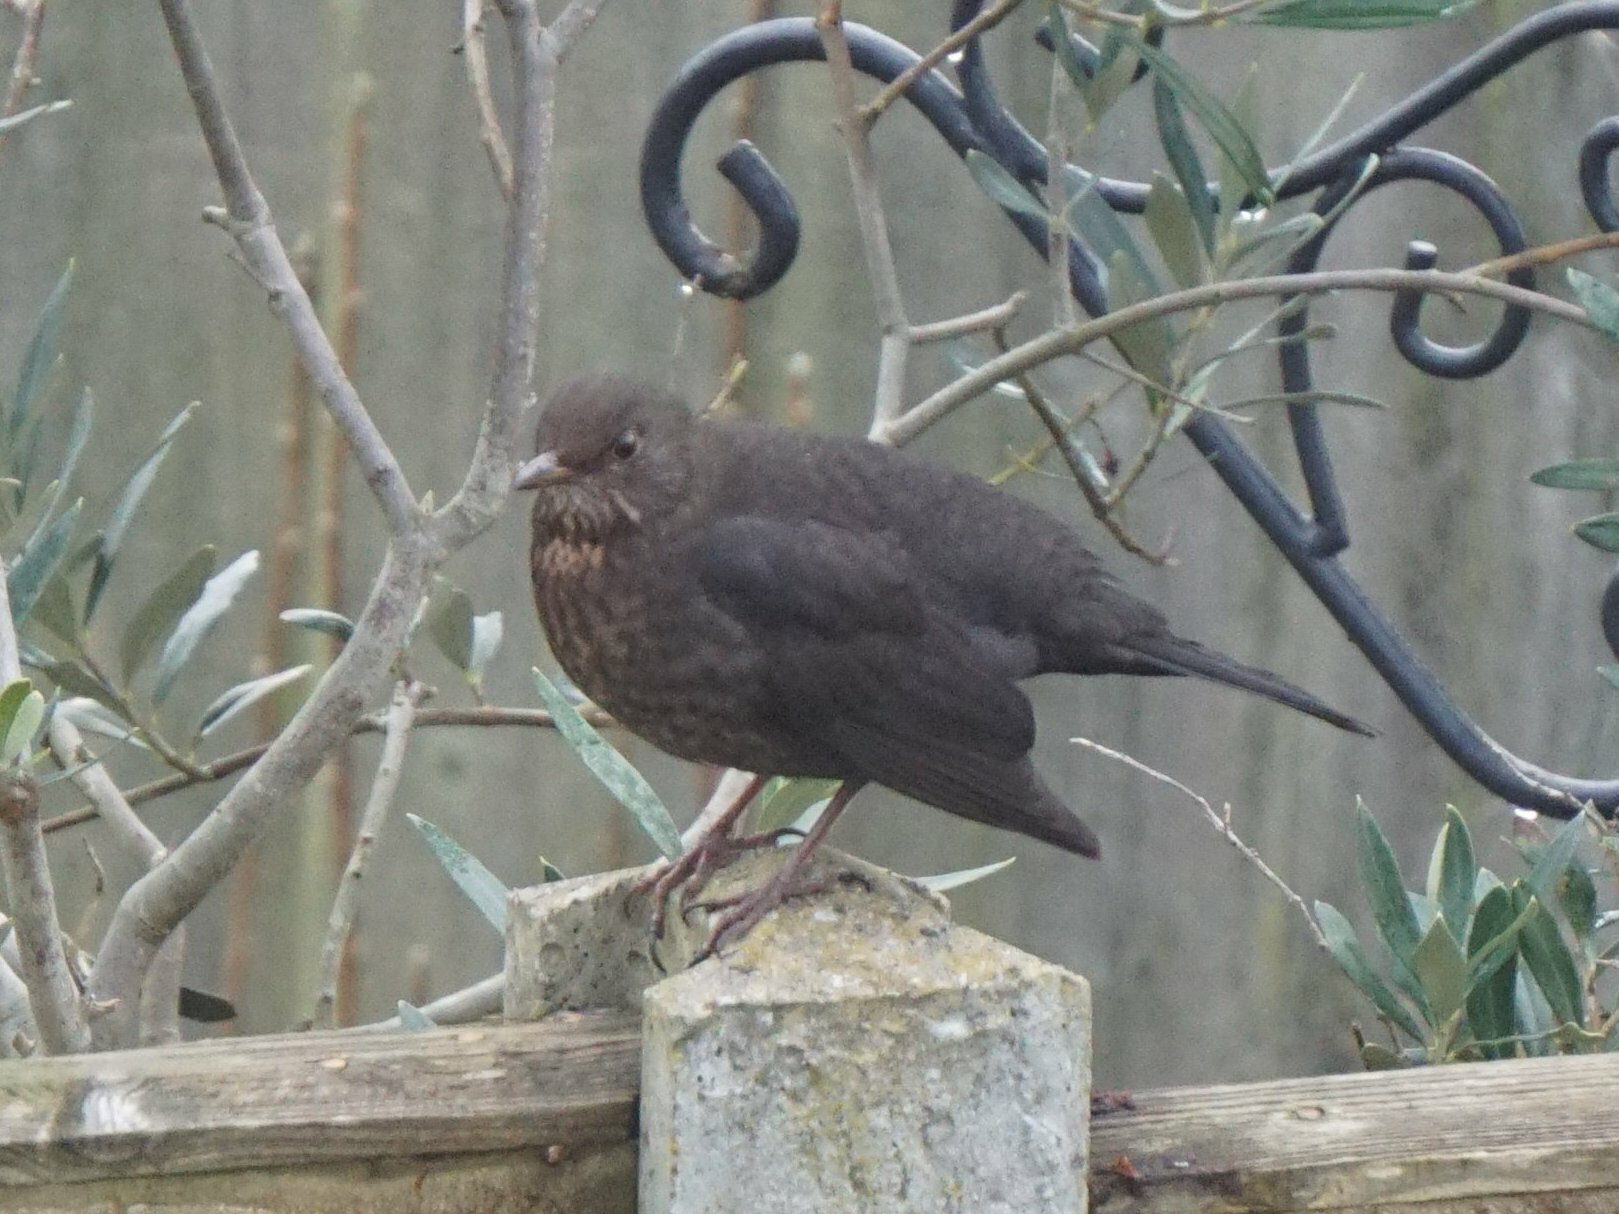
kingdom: Animalia
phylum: Chordata
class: Aves
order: Passeriformes
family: Turdidae
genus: Turdus
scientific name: Turdus merula
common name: Common blackbird
